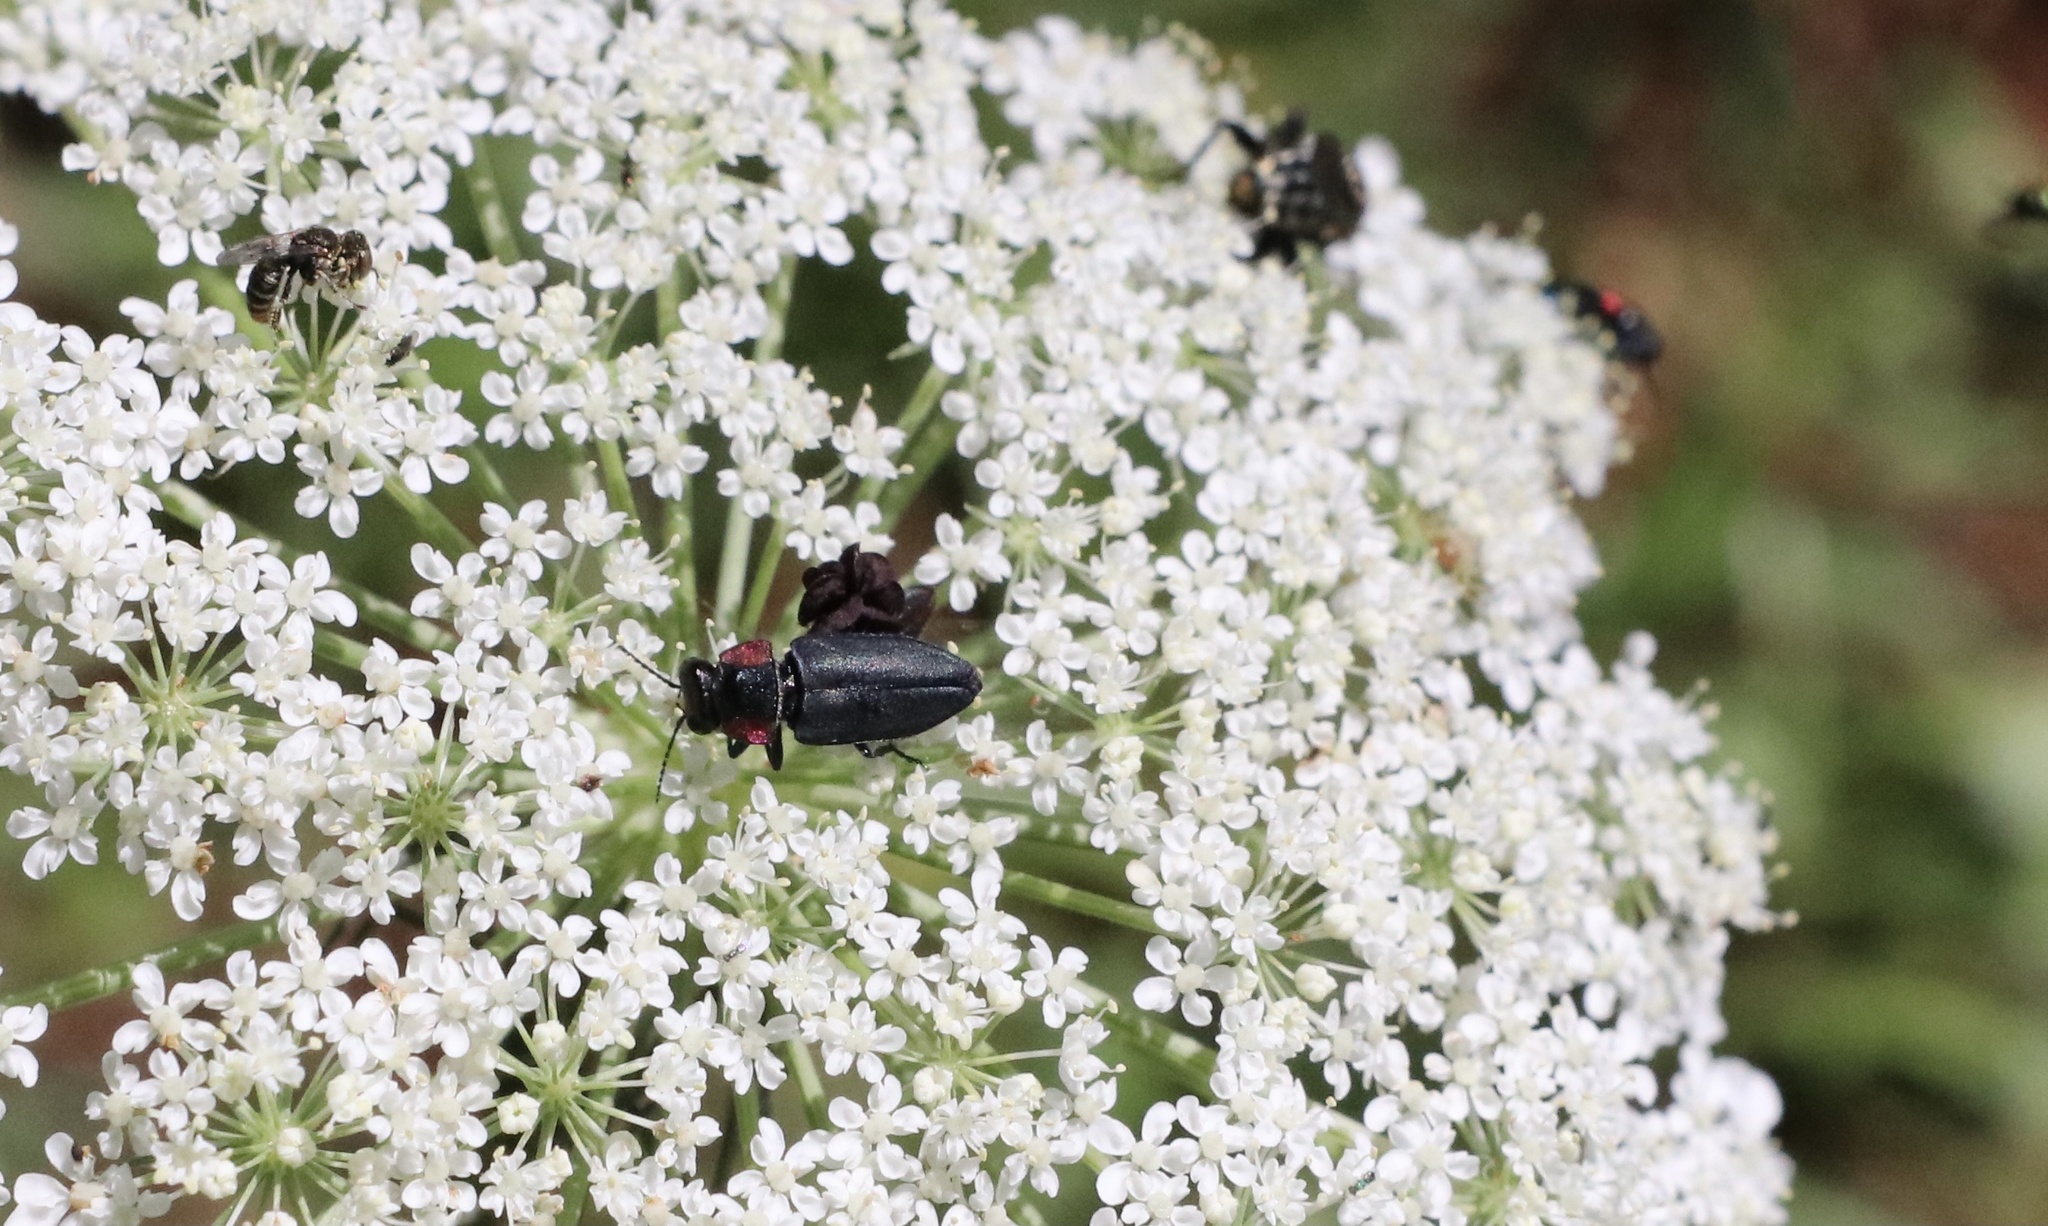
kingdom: Animalia
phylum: Arthropoda
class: Insecta
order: Coleoptera
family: Buprestidae
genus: Romanophora
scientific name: Romanophora verecunda
